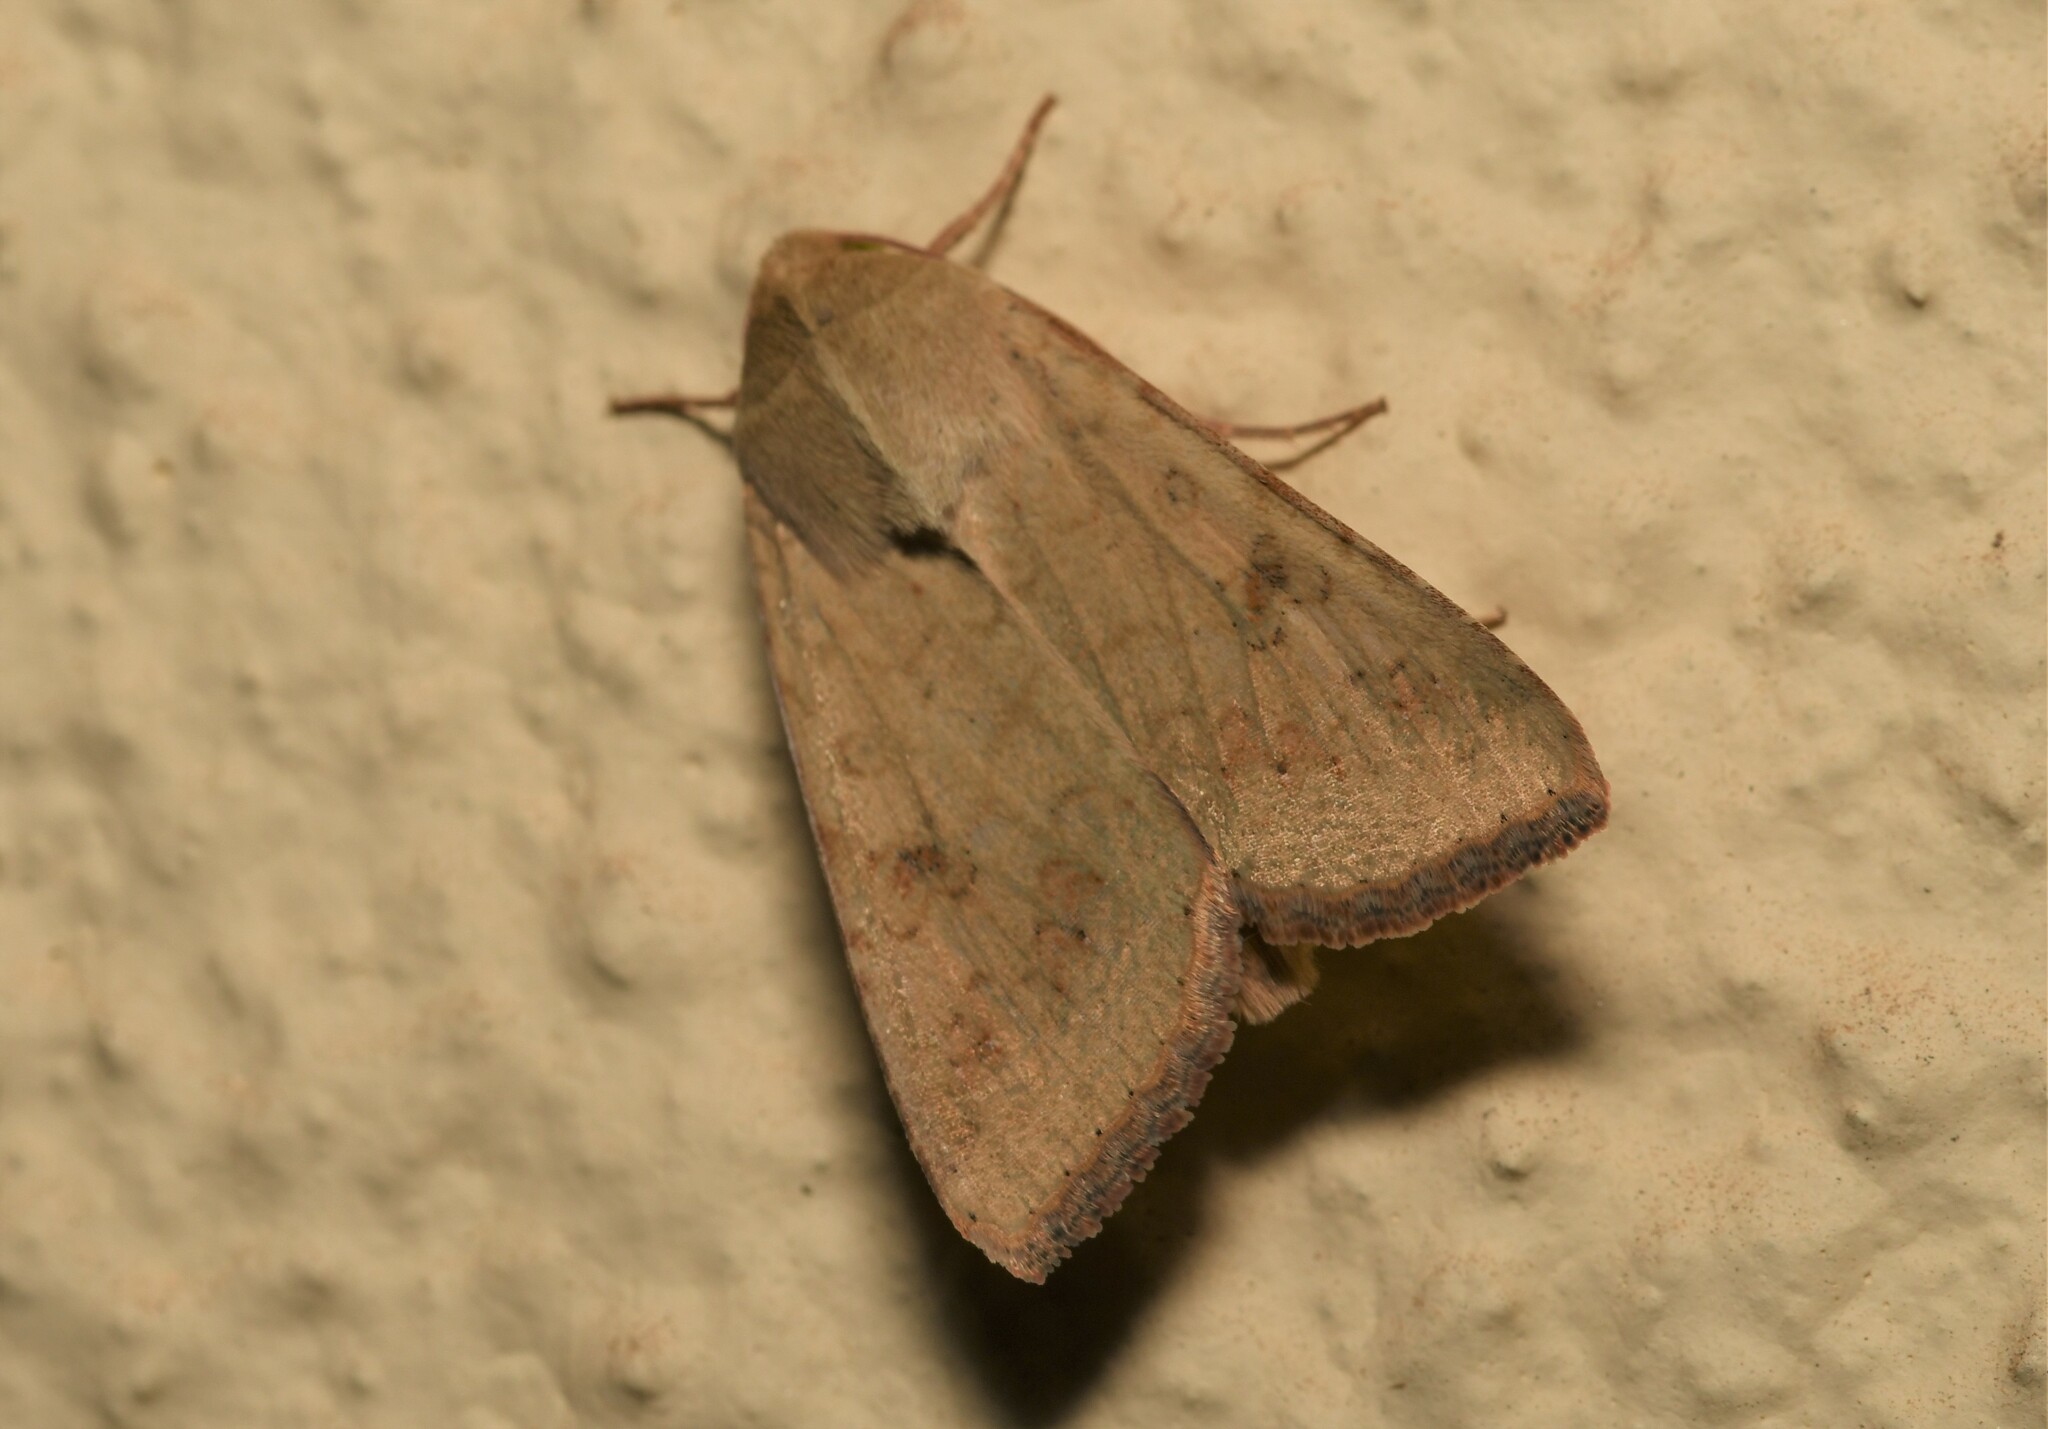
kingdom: Animalia
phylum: Arthropoda
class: Insecta
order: Lepidoptera
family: Noctuidae
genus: Helicoverpa
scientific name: Helicoverpa armigera
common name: Cotton bollworm
